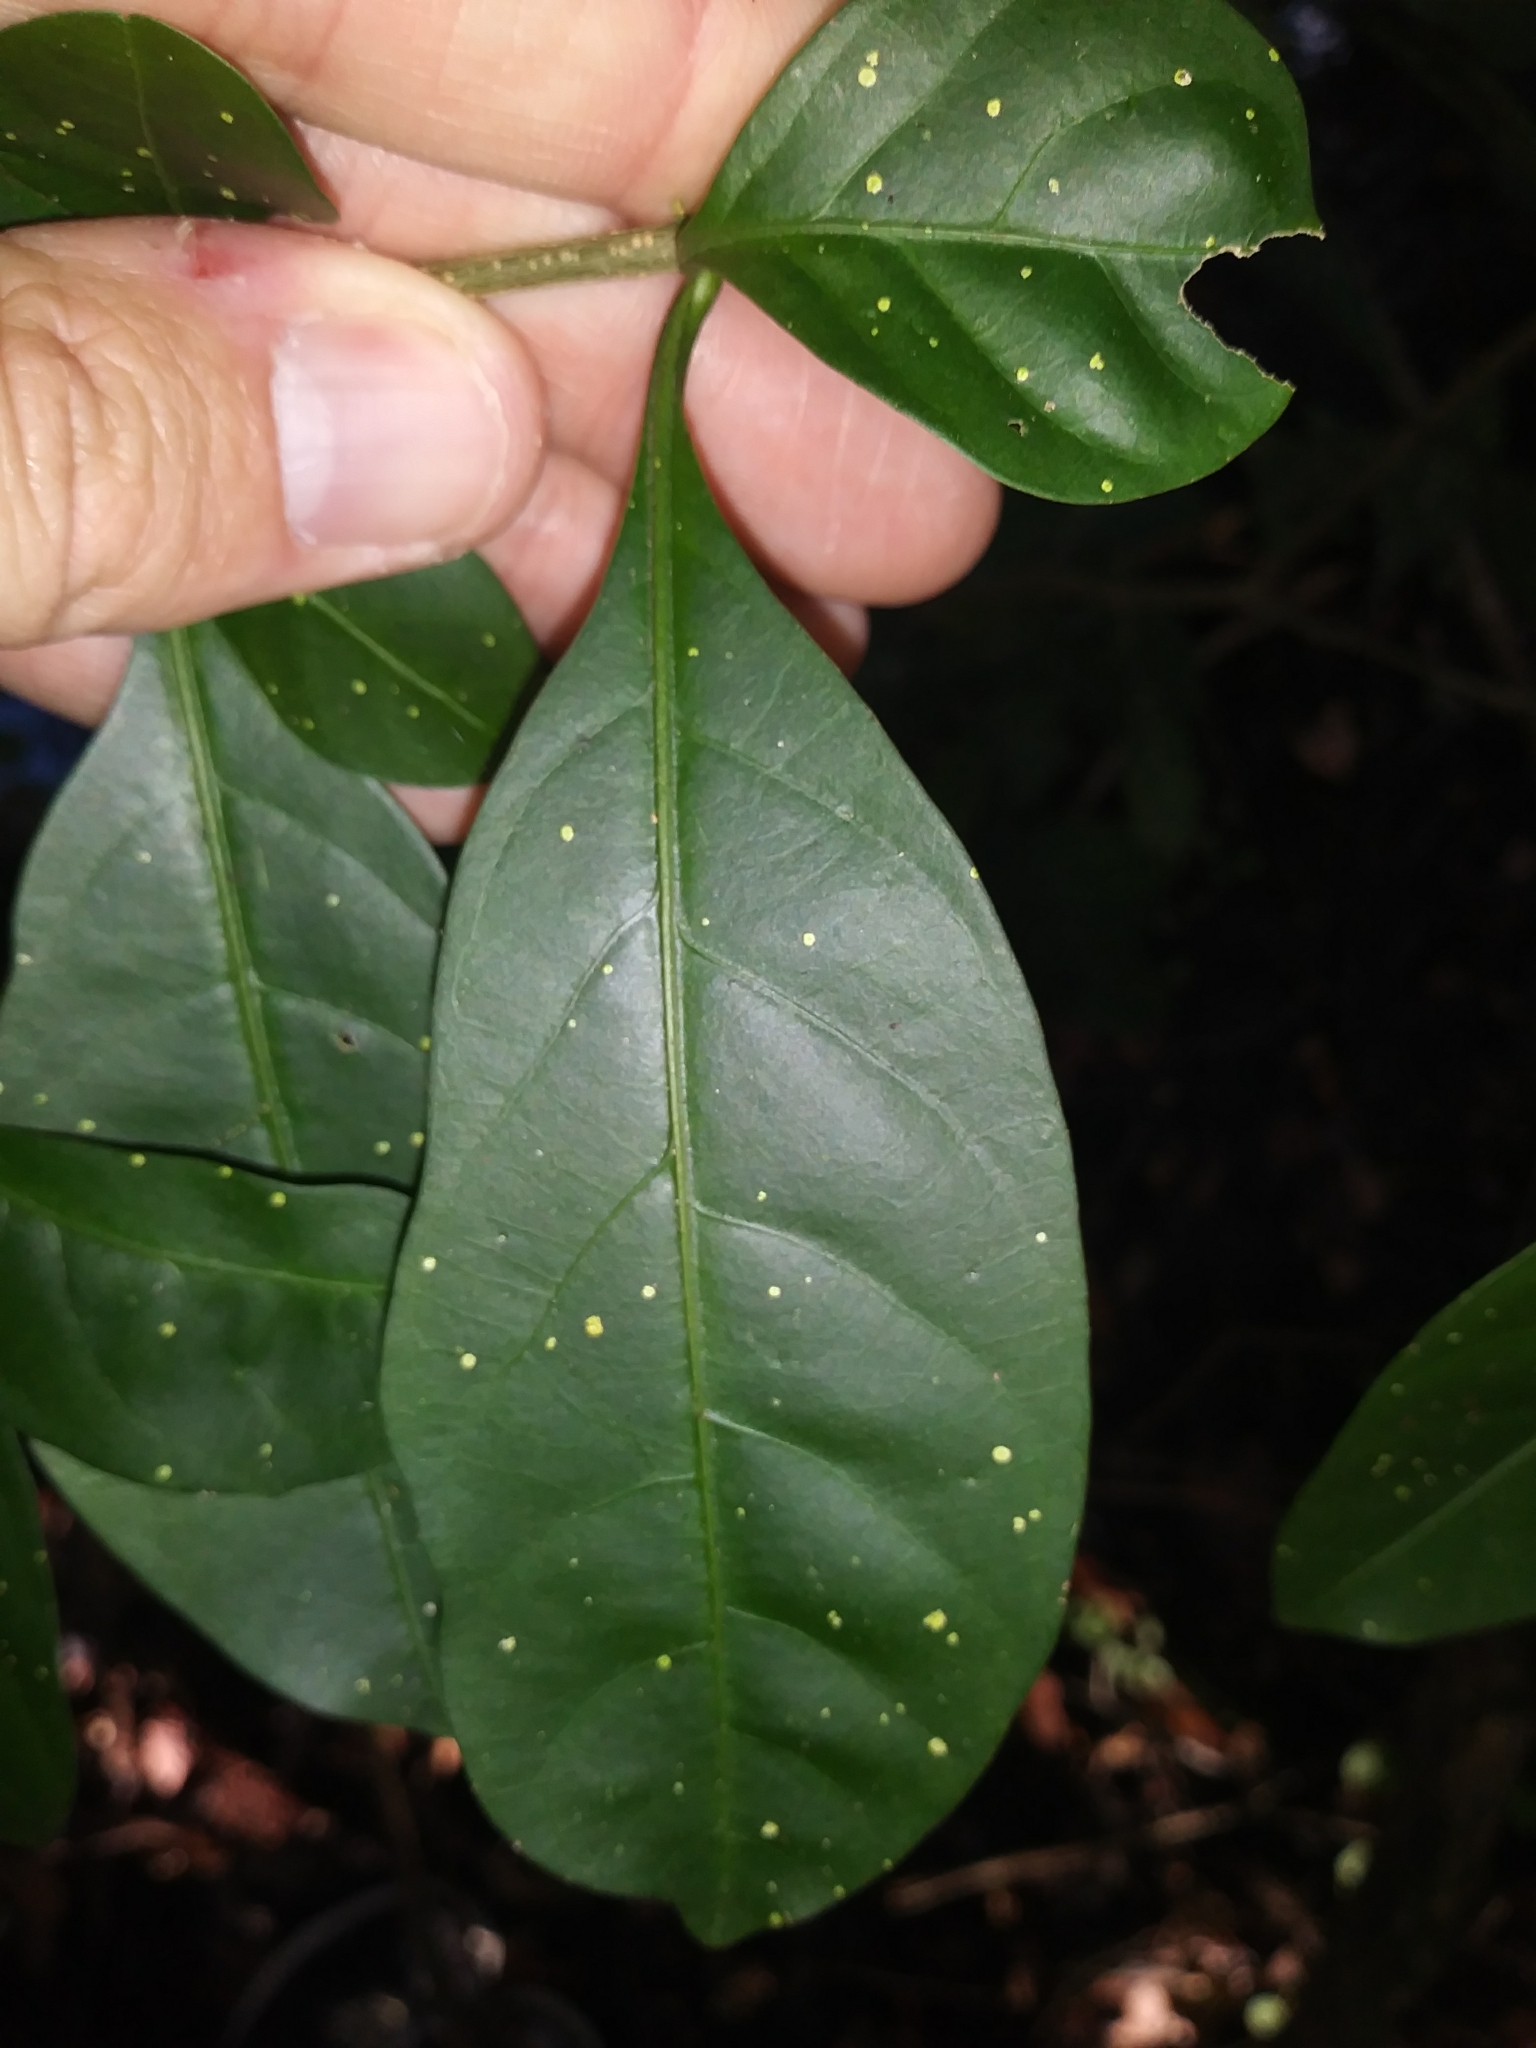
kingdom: Plantae
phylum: Tracheophyta
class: Magnoliopsida
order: Solanales
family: Solanaceae
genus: Solanum
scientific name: Solanum diphyllum
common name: Twoleaf nightshade
